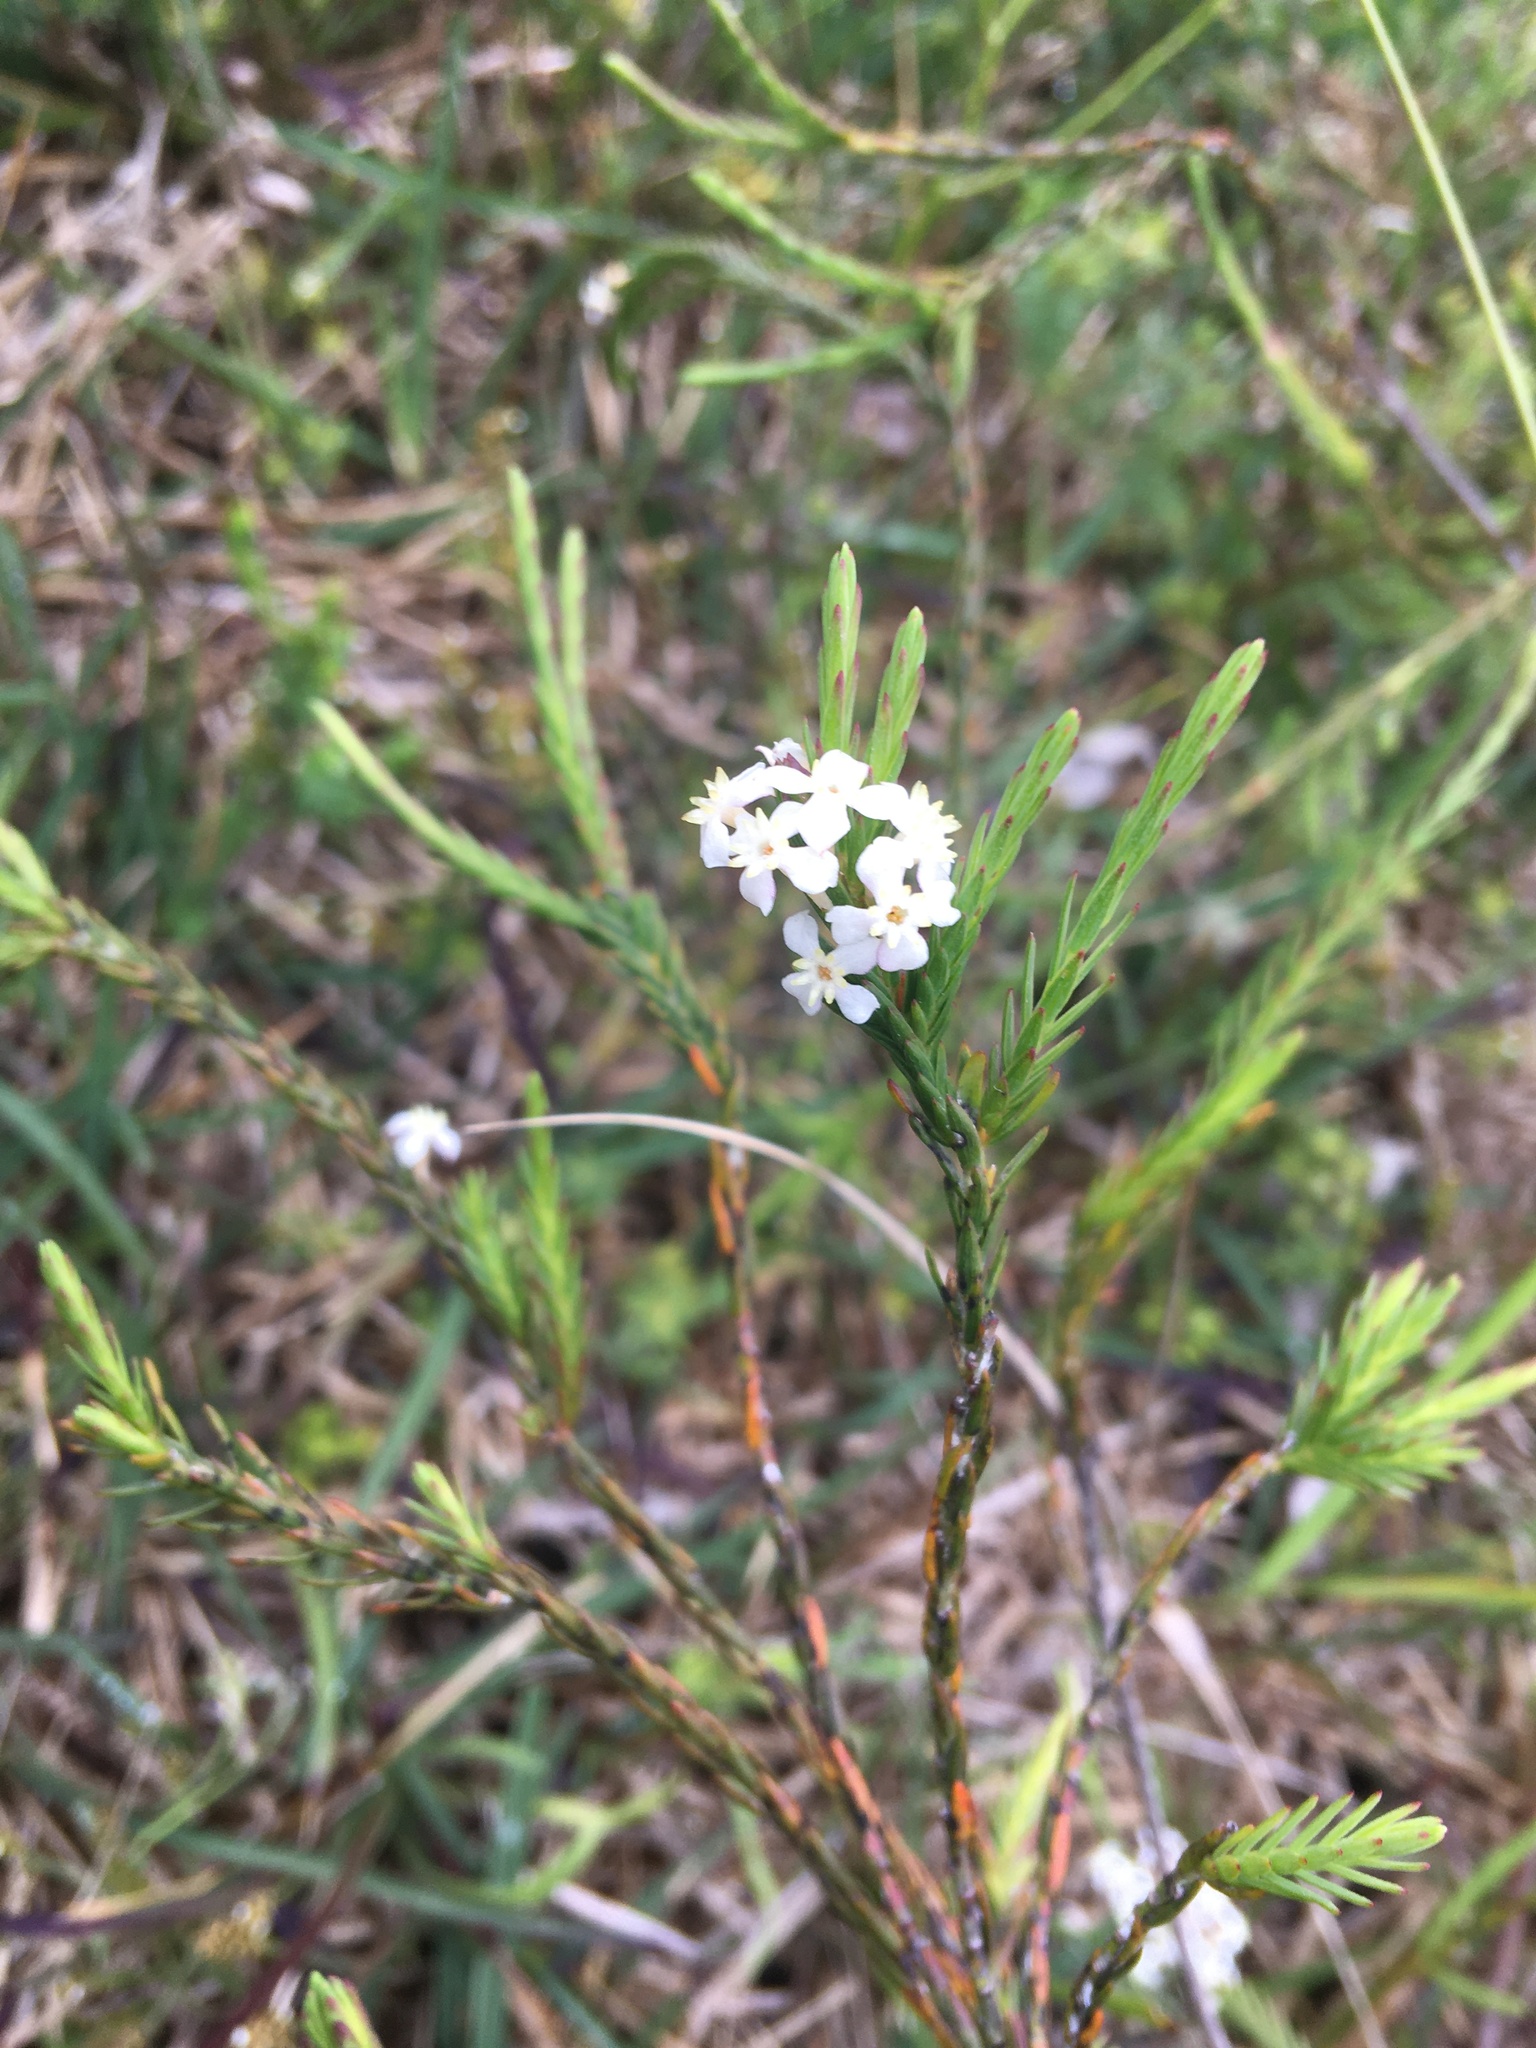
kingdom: Plantae
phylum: Tracheophyta
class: Magnoliopsida
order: Malvales
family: Thymelaeaceae
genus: Struthiola
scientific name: Struthiola ciliata
